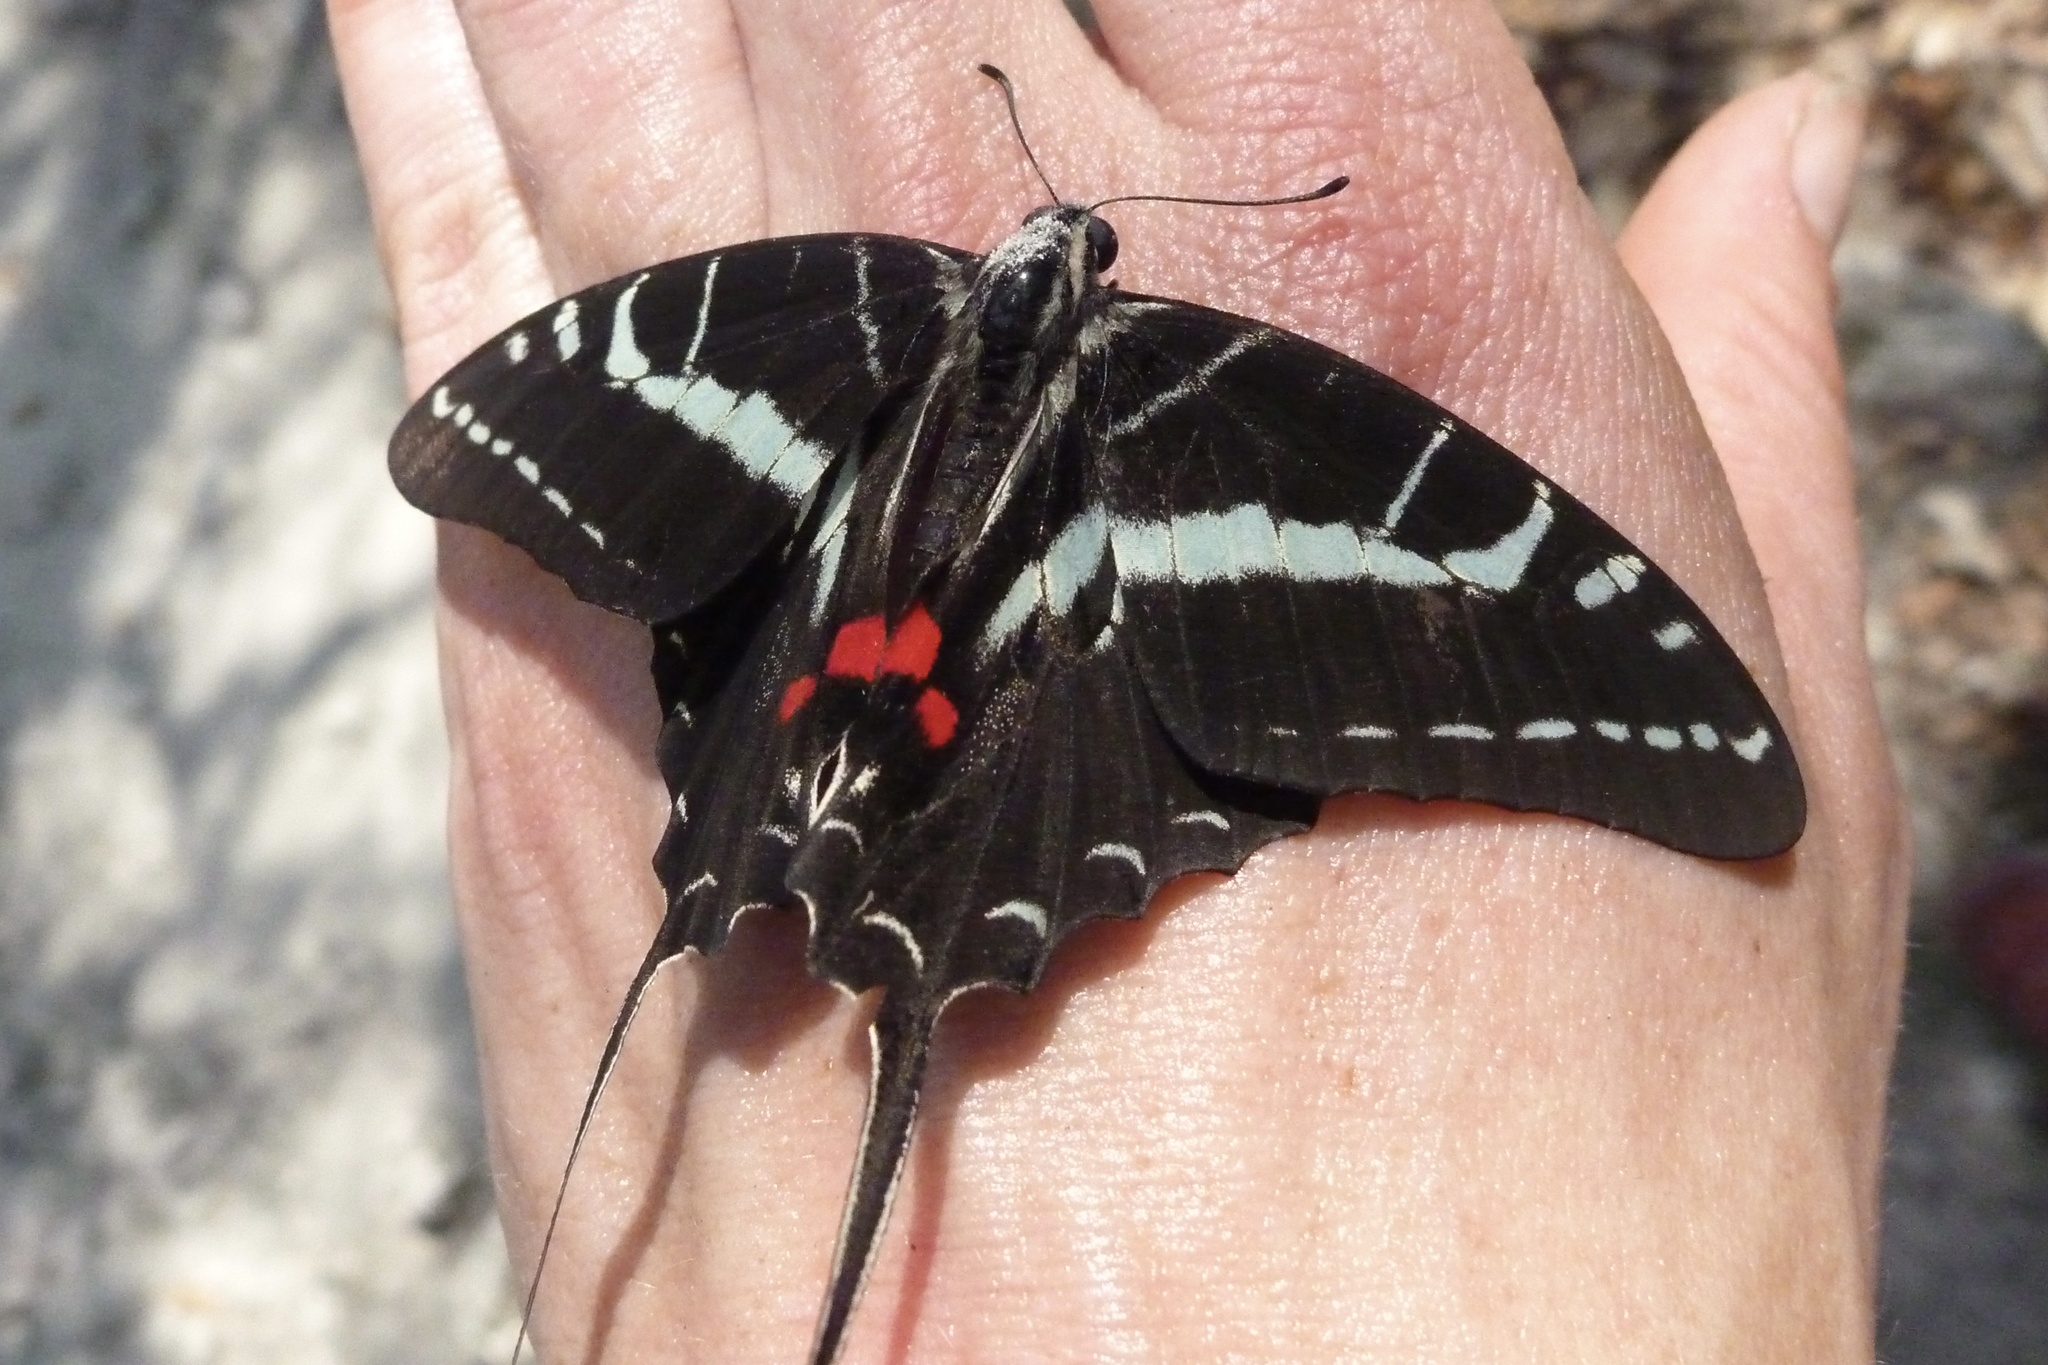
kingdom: Animalia
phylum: Arthropoda
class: Insecta
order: Lepidoptera
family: Papilionidae
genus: Protographium
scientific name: Protographium philolaus
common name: Dark zebra swallowtail
